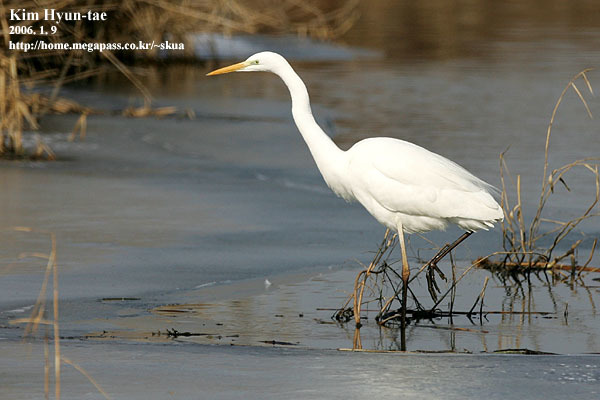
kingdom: Animalia
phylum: Chordata
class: Aves
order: Pelecaniformes
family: Ardeidae
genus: Ardea
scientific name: Ardea alba
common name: Great egret
